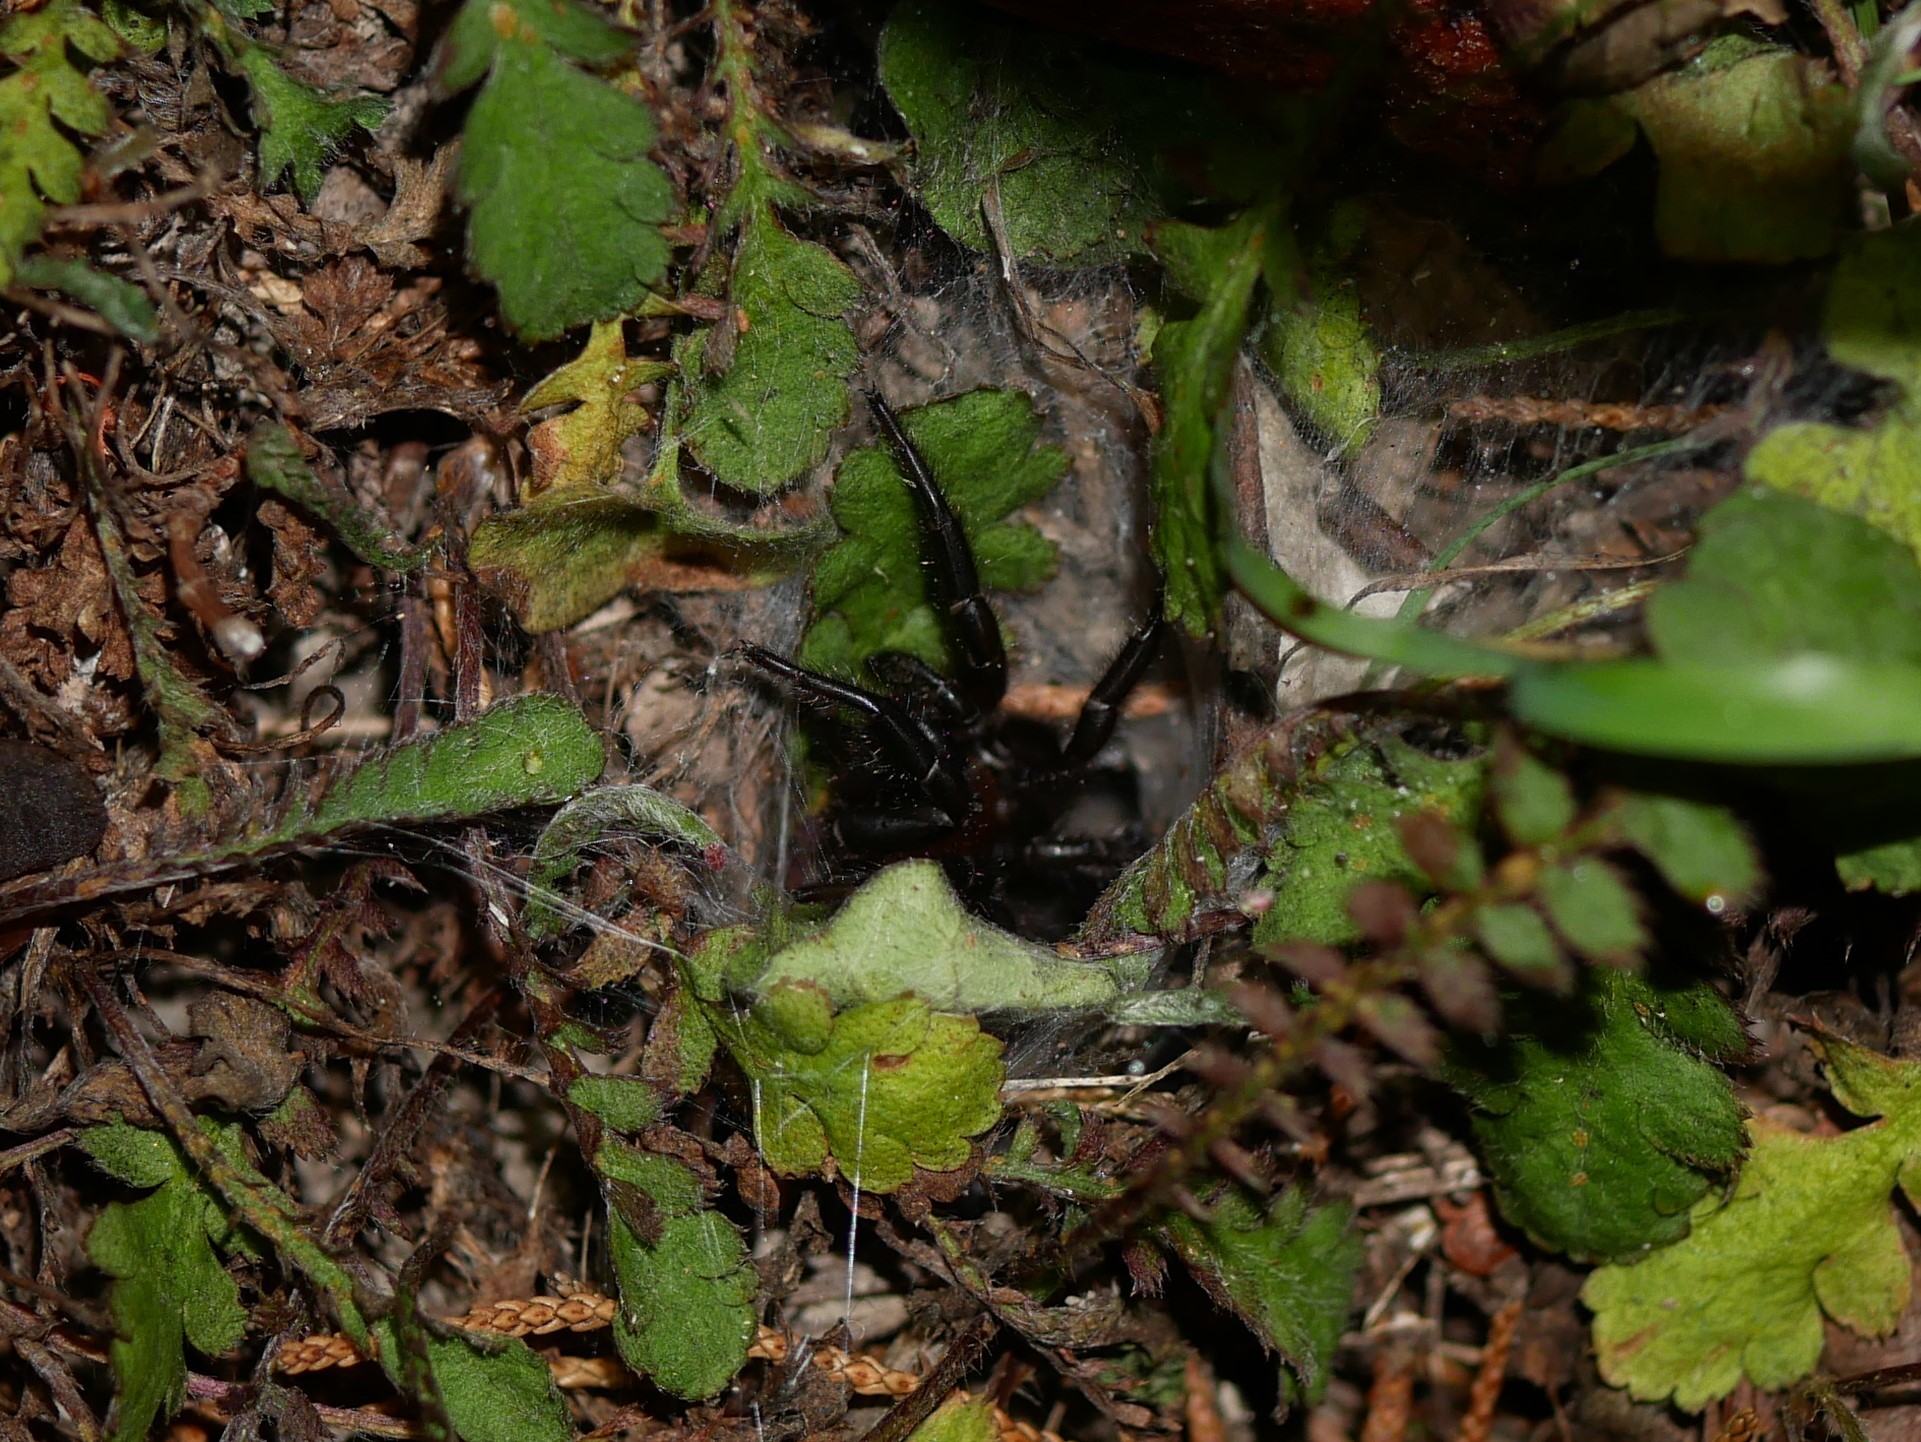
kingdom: Animalia
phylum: Arthropoda
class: Arachnida
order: Araneae
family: Porrhothelidae
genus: Porrhothele
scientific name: Porrhothele antipodiana
